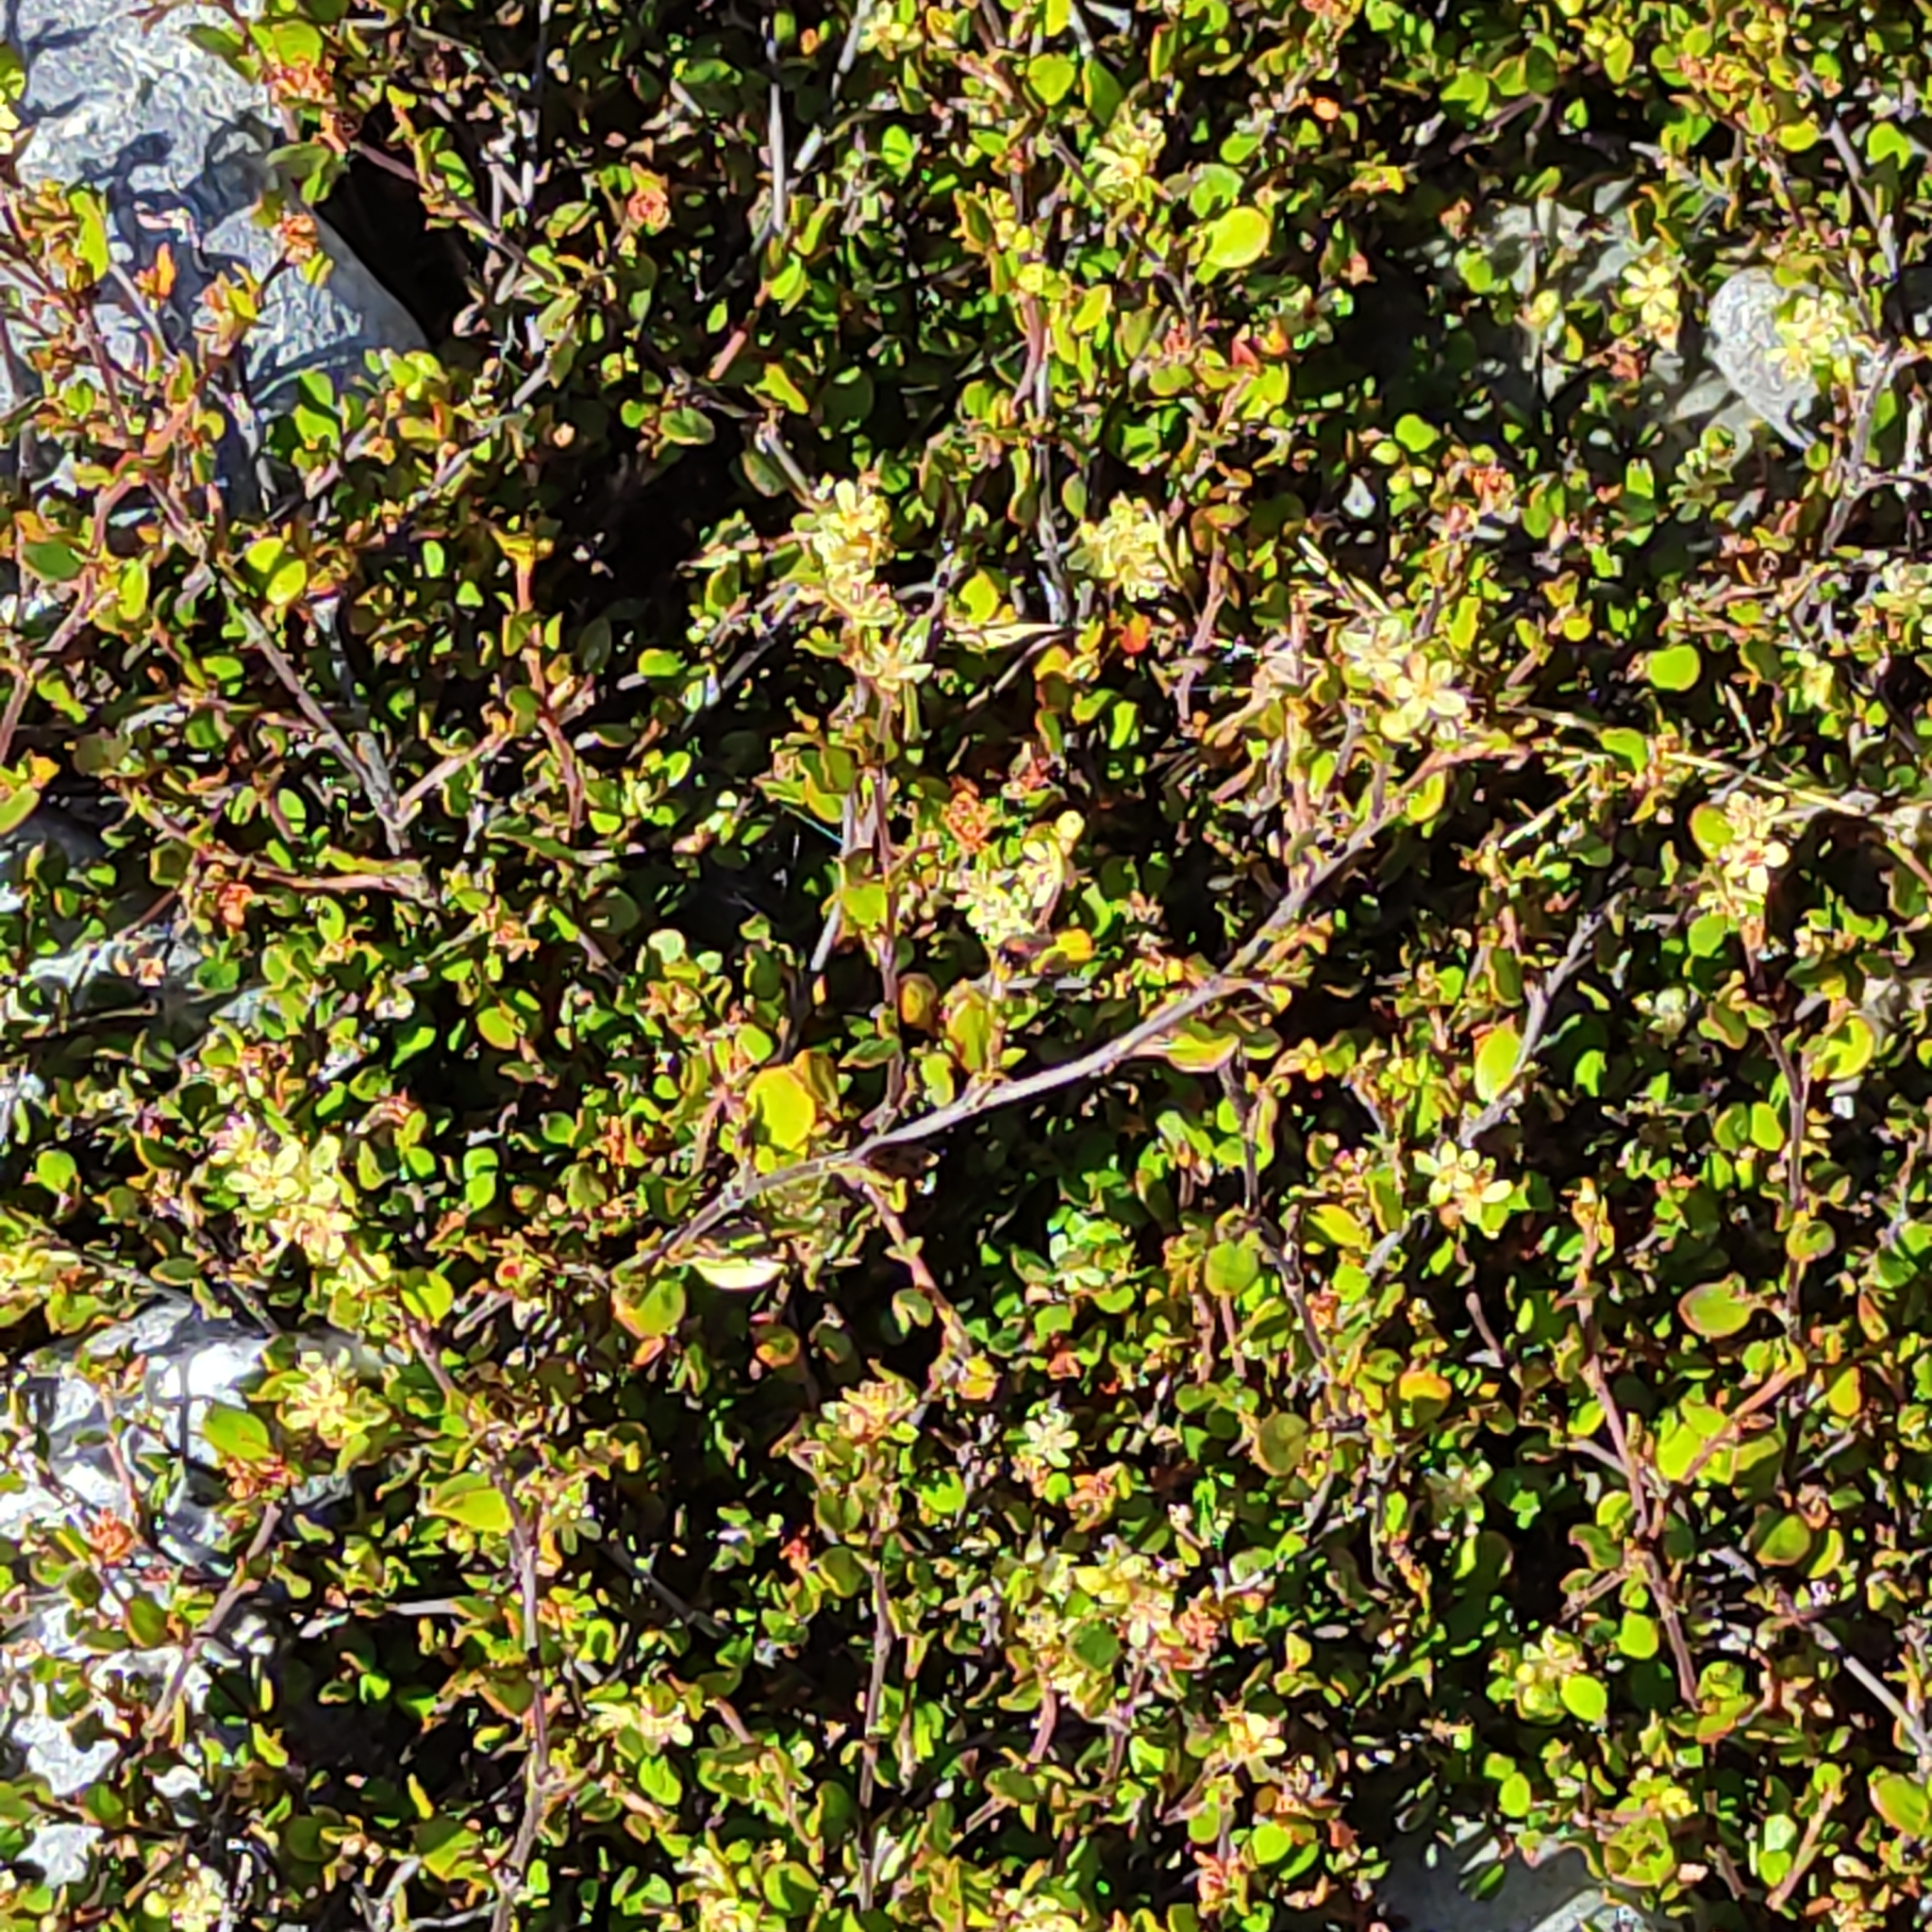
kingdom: Plantae
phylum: Tracheophyta
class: Magnoliopsida
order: Caryophyllales
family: Polygonaceae
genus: Muehlenbeckia
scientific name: Muehlenbeckia axillaris
